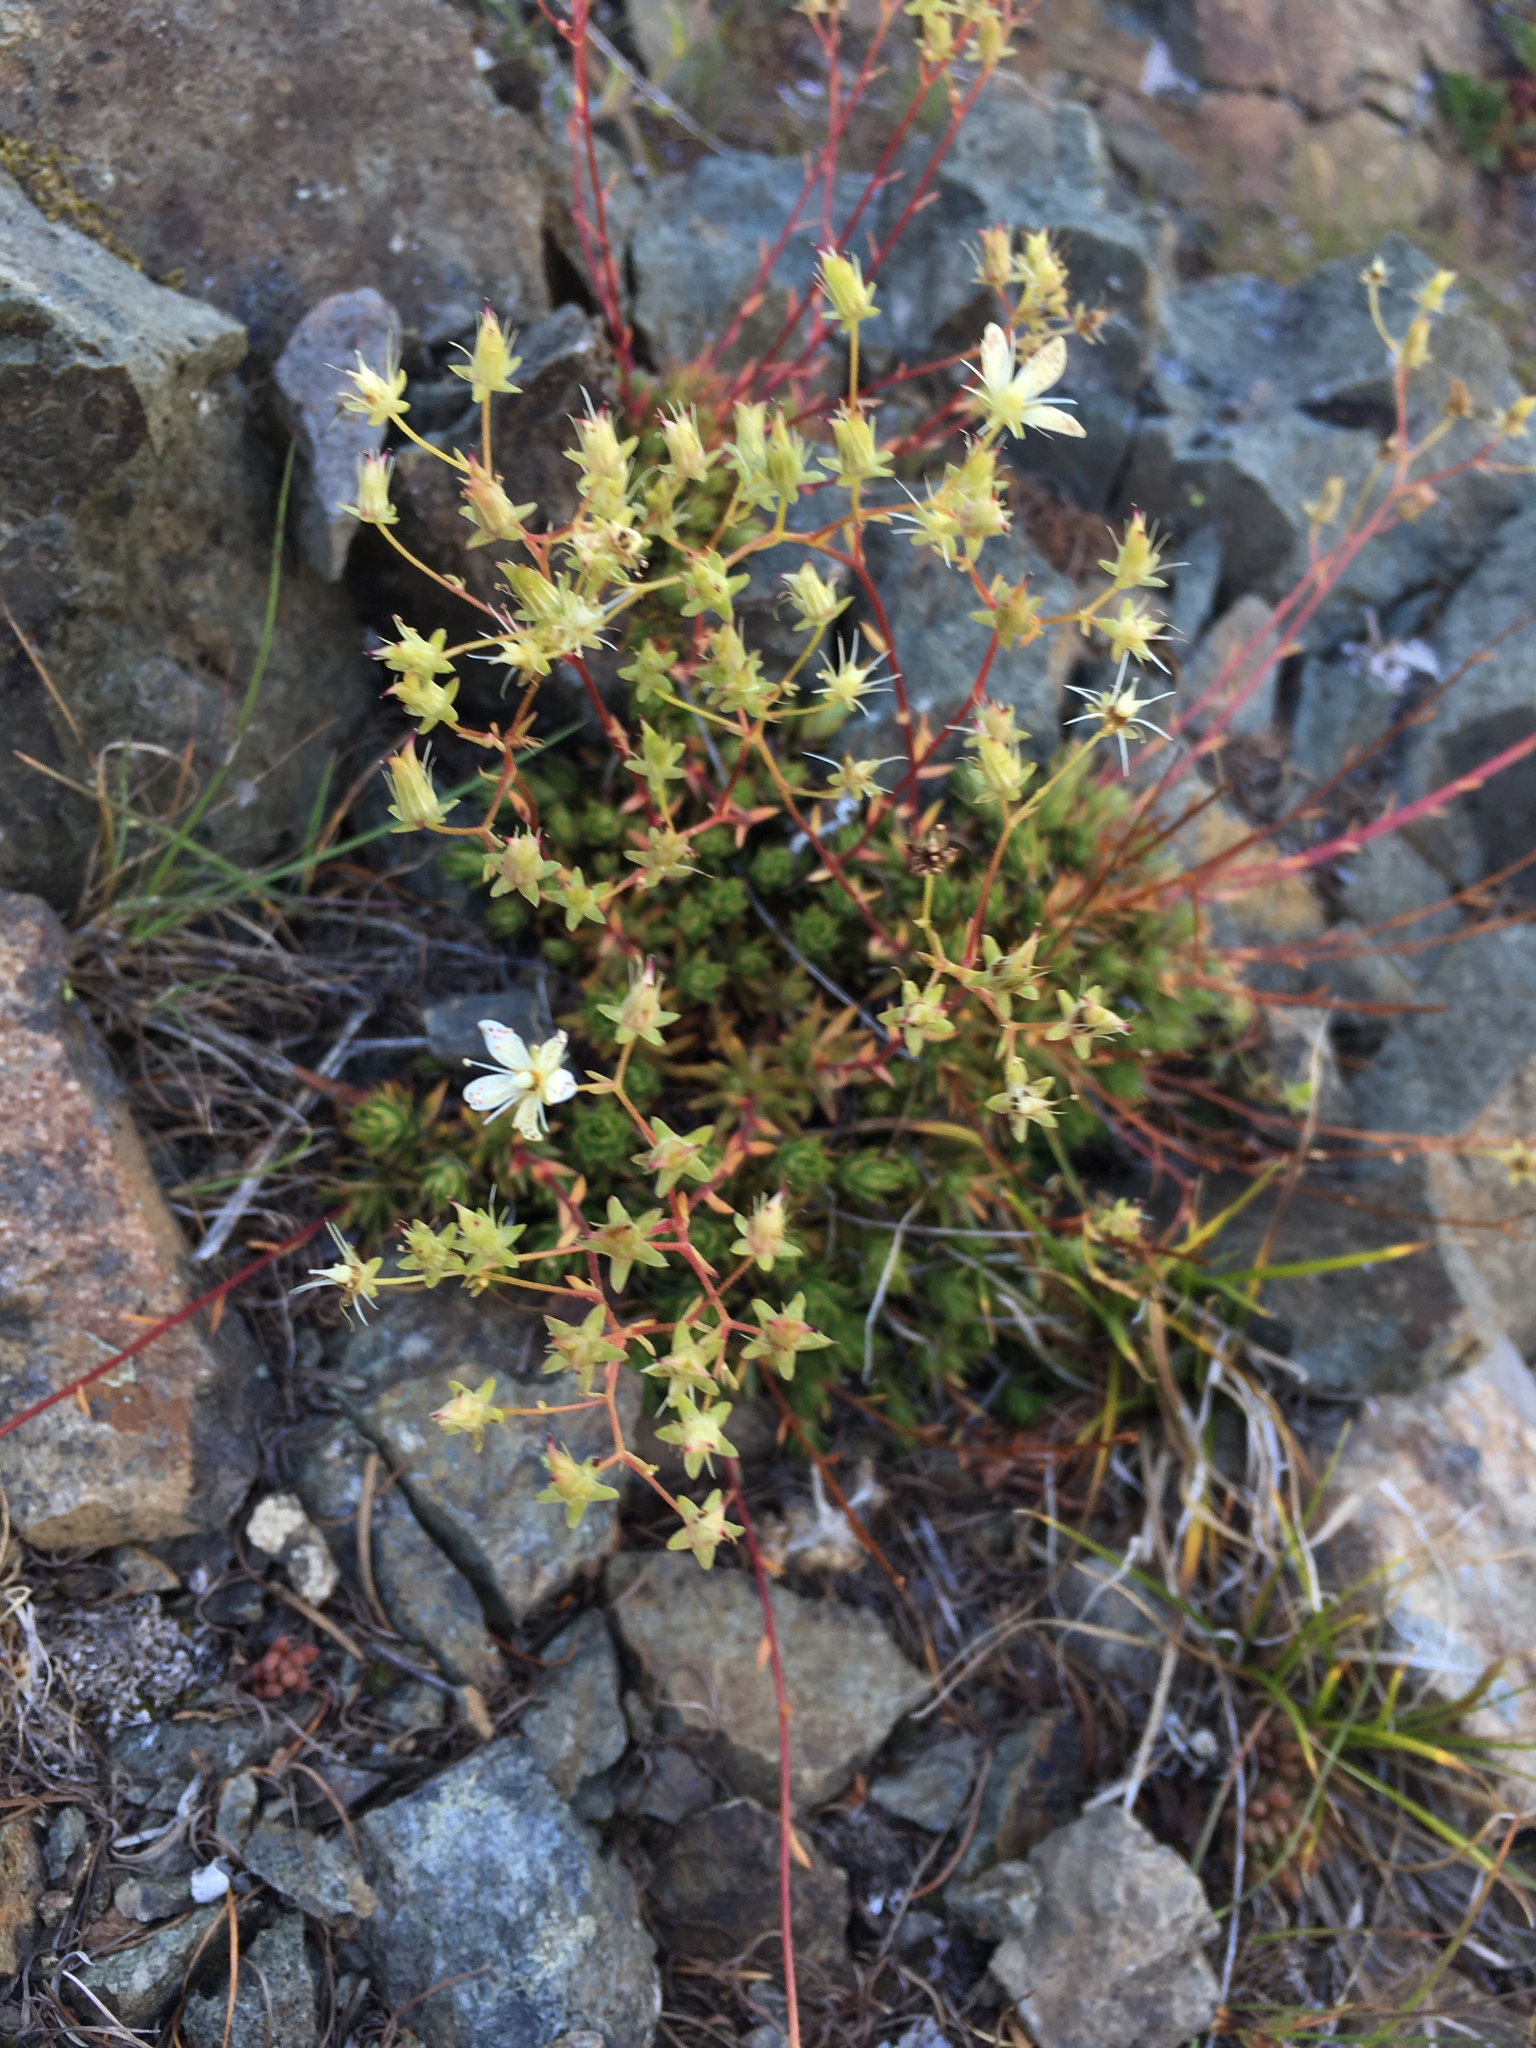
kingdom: Plantae
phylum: Tracheophyta
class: Magnoliopsida
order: Saxifragales
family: Saxifragaceae
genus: Saxifraga
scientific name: Saxifraga bronchialis
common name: Matted saxifrage
